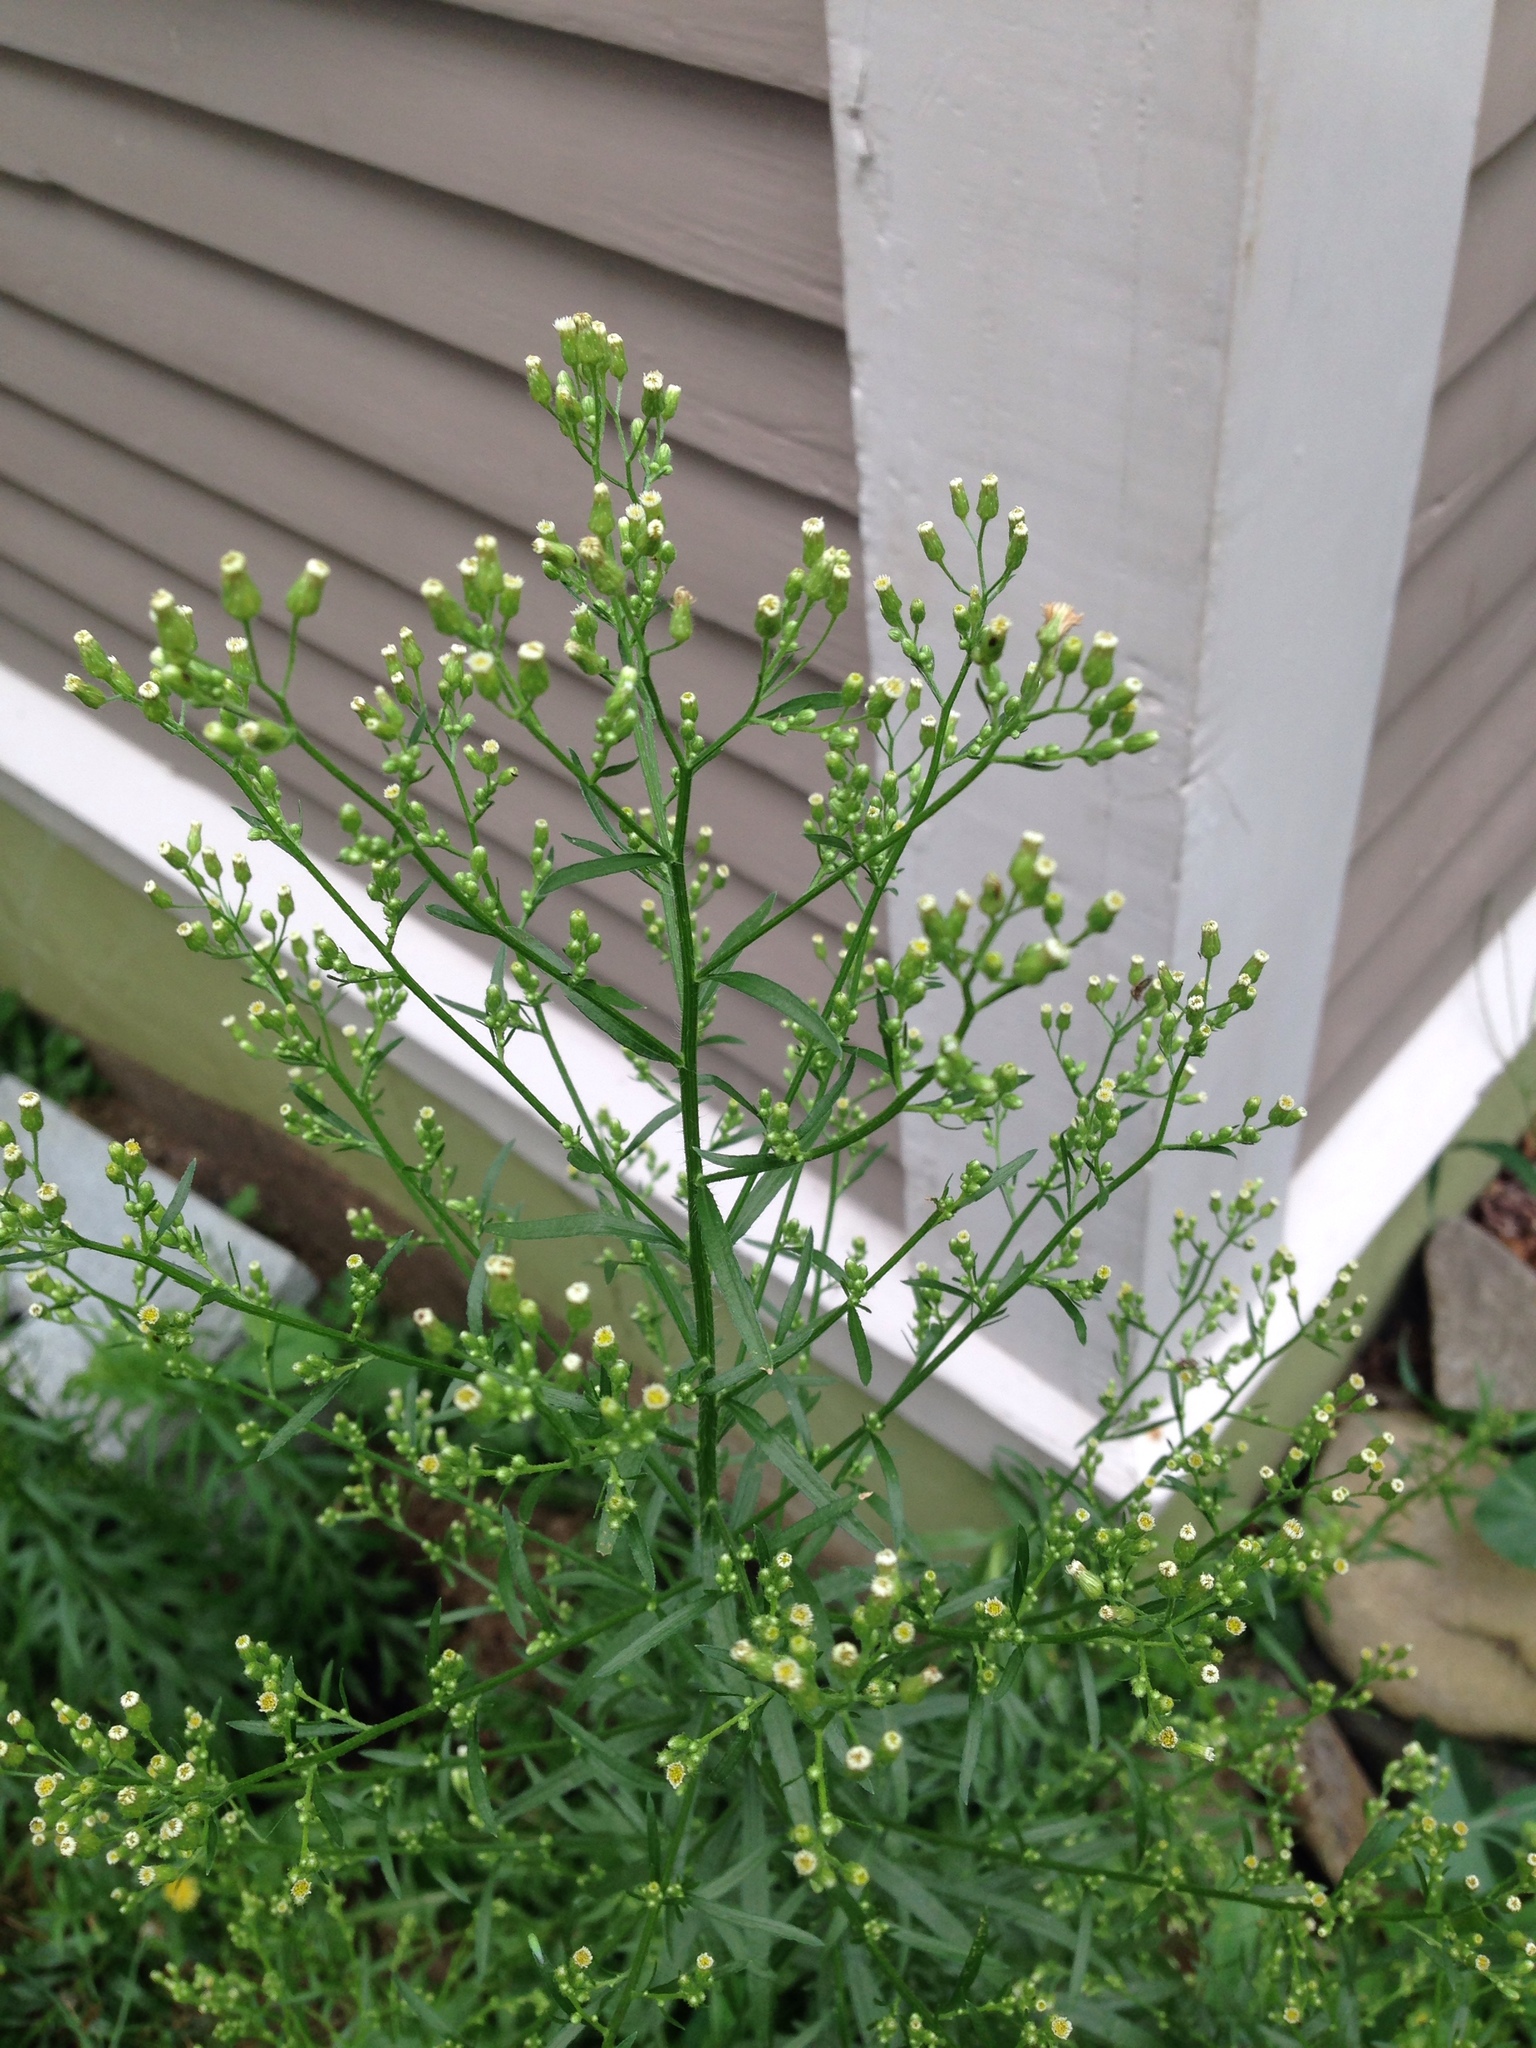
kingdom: Plantae
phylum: Tracheophyta
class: Magnoliopsida
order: Asterales
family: Asteraceae
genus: Erigeron
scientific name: Erigeron canadensis
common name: Canadian fleabane
